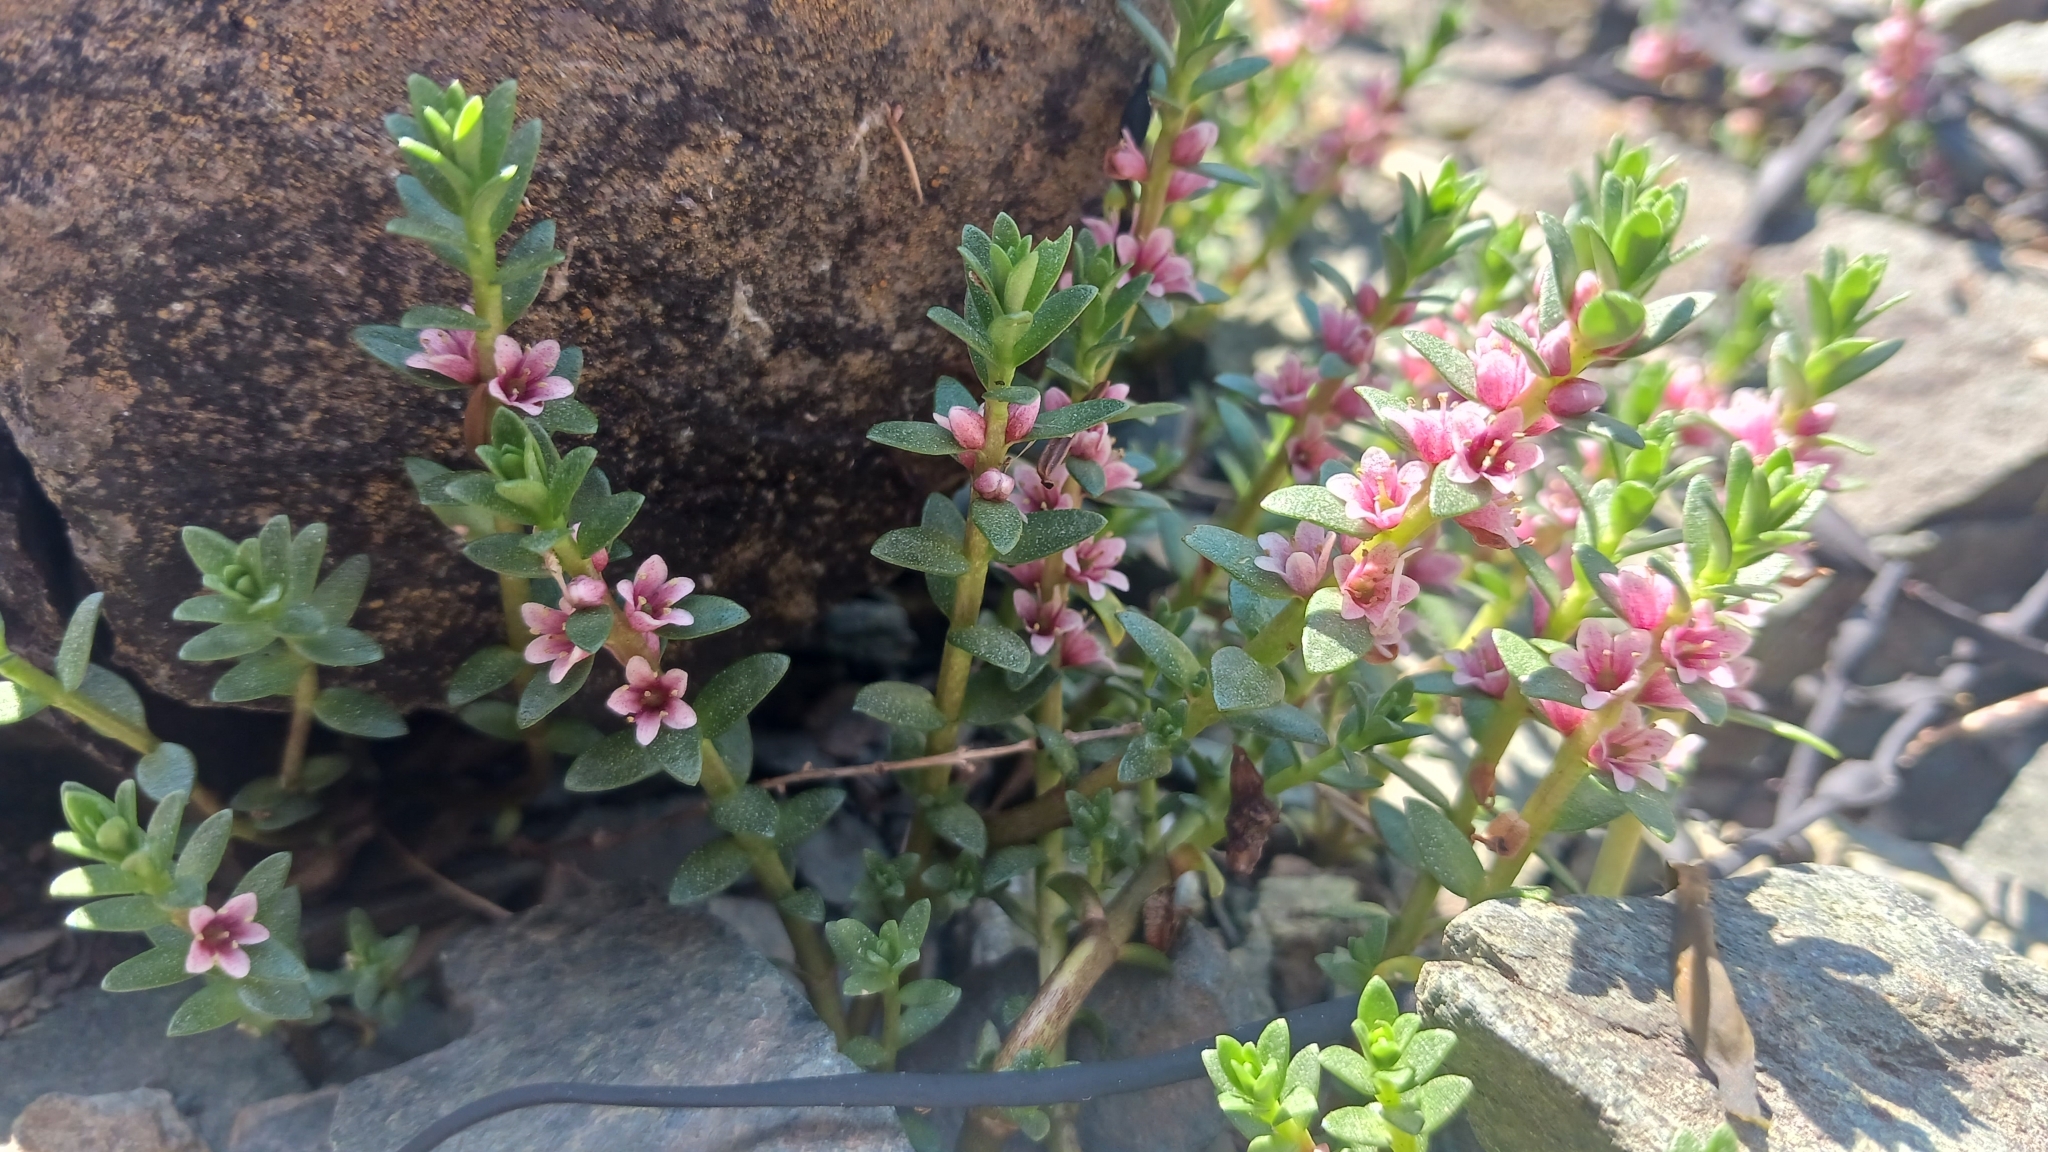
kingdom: Plantae
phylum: Tracheophyta
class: Magnoliopsida
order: Ericales
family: Primulaceae
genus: Lysimachia
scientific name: Lysimachia maritima
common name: Sea milkwort
